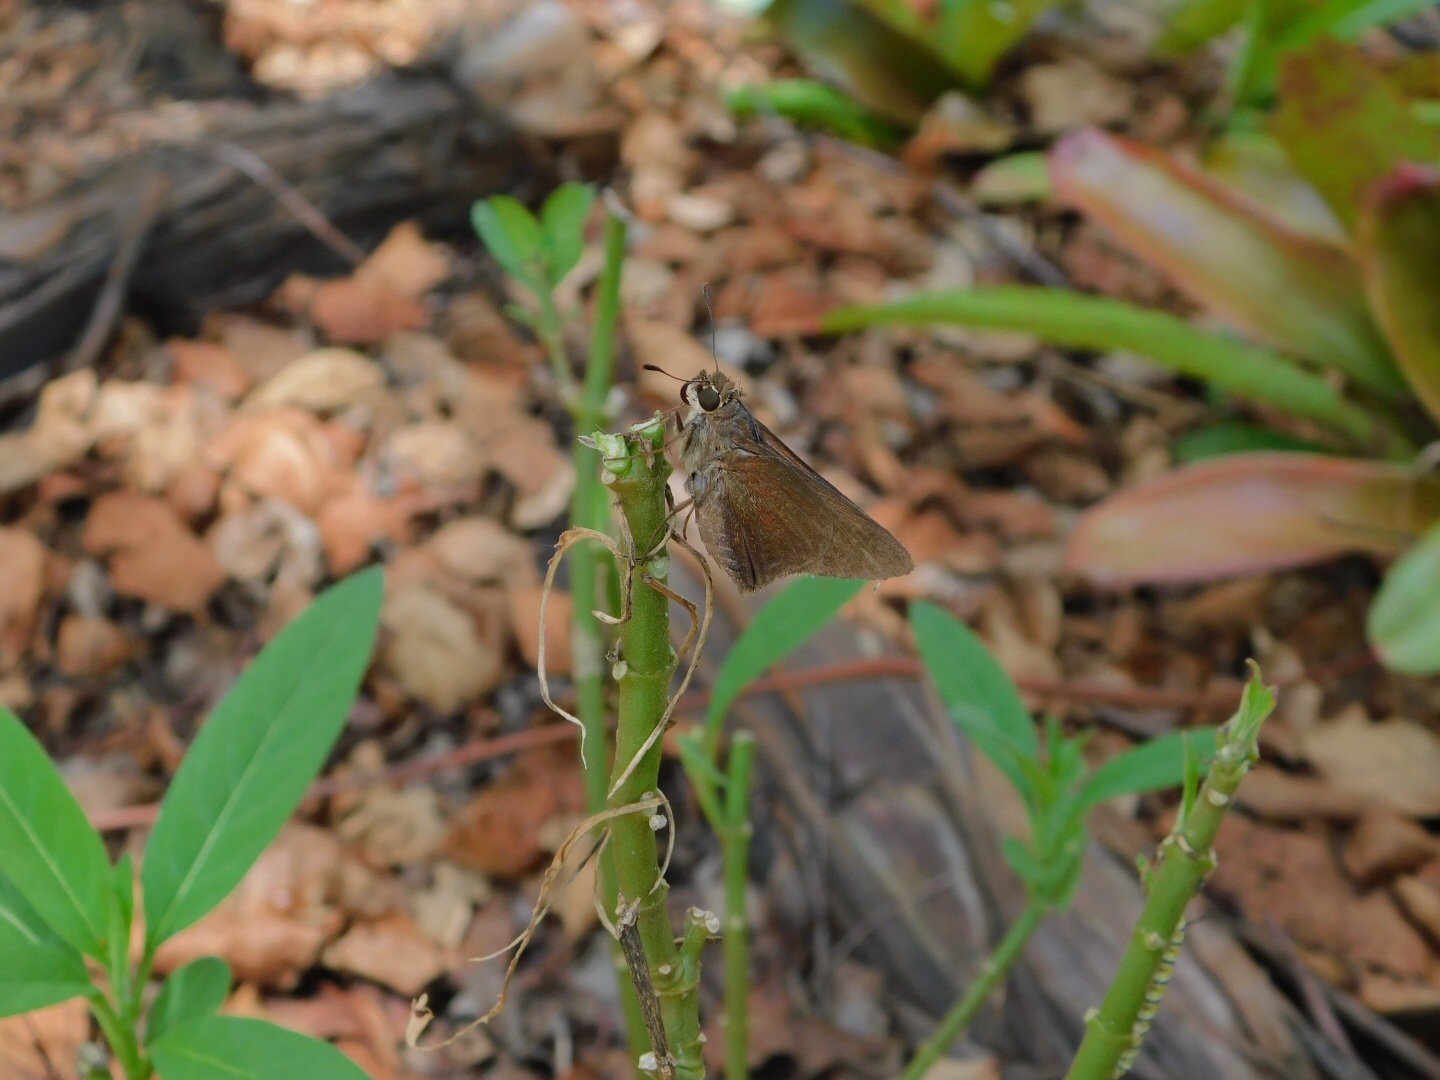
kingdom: Animalia
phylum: Arthropoda
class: Insecta
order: Lepidoptera
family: Hesperiidae
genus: Asbolis
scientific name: Asbolis capucinus
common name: Monk skipper
